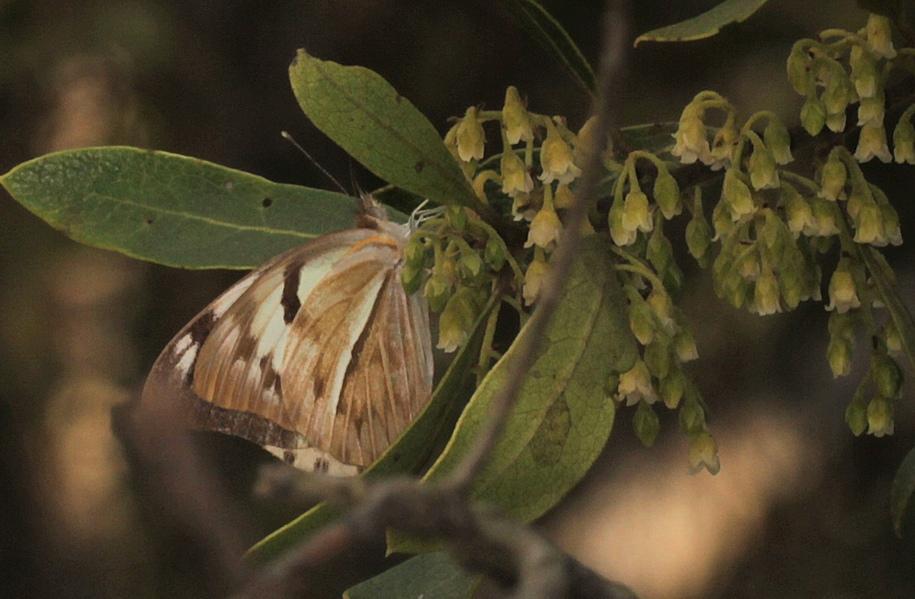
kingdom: Animalia
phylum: Arthropoda
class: Insecta
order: Lepidoptera
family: Pieridae
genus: Belenois
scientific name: Belenois gidica
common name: Pointed caper white
